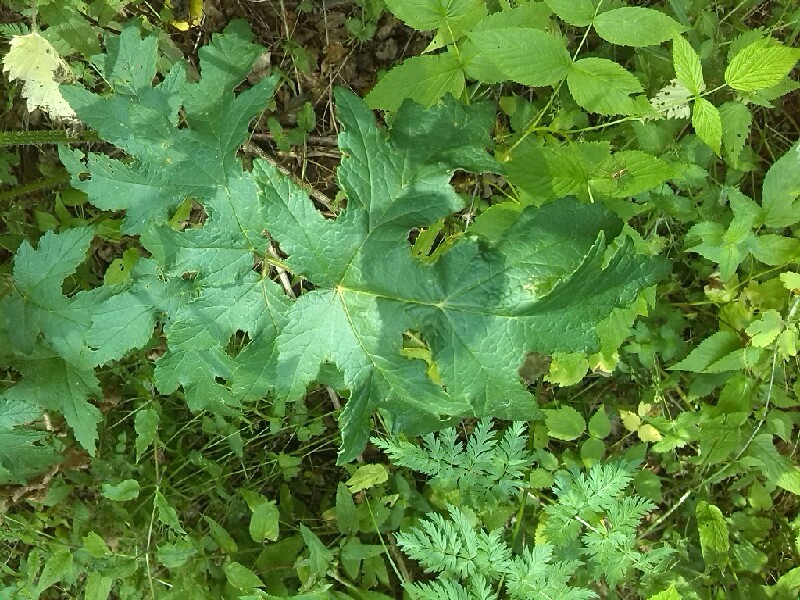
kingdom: Plantae
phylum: Tracheophyta
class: Magnoliopsida
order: Apiales
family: Apiaceae
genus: Heracleum
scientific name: Heracleum sphondylium
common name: Hogweed
